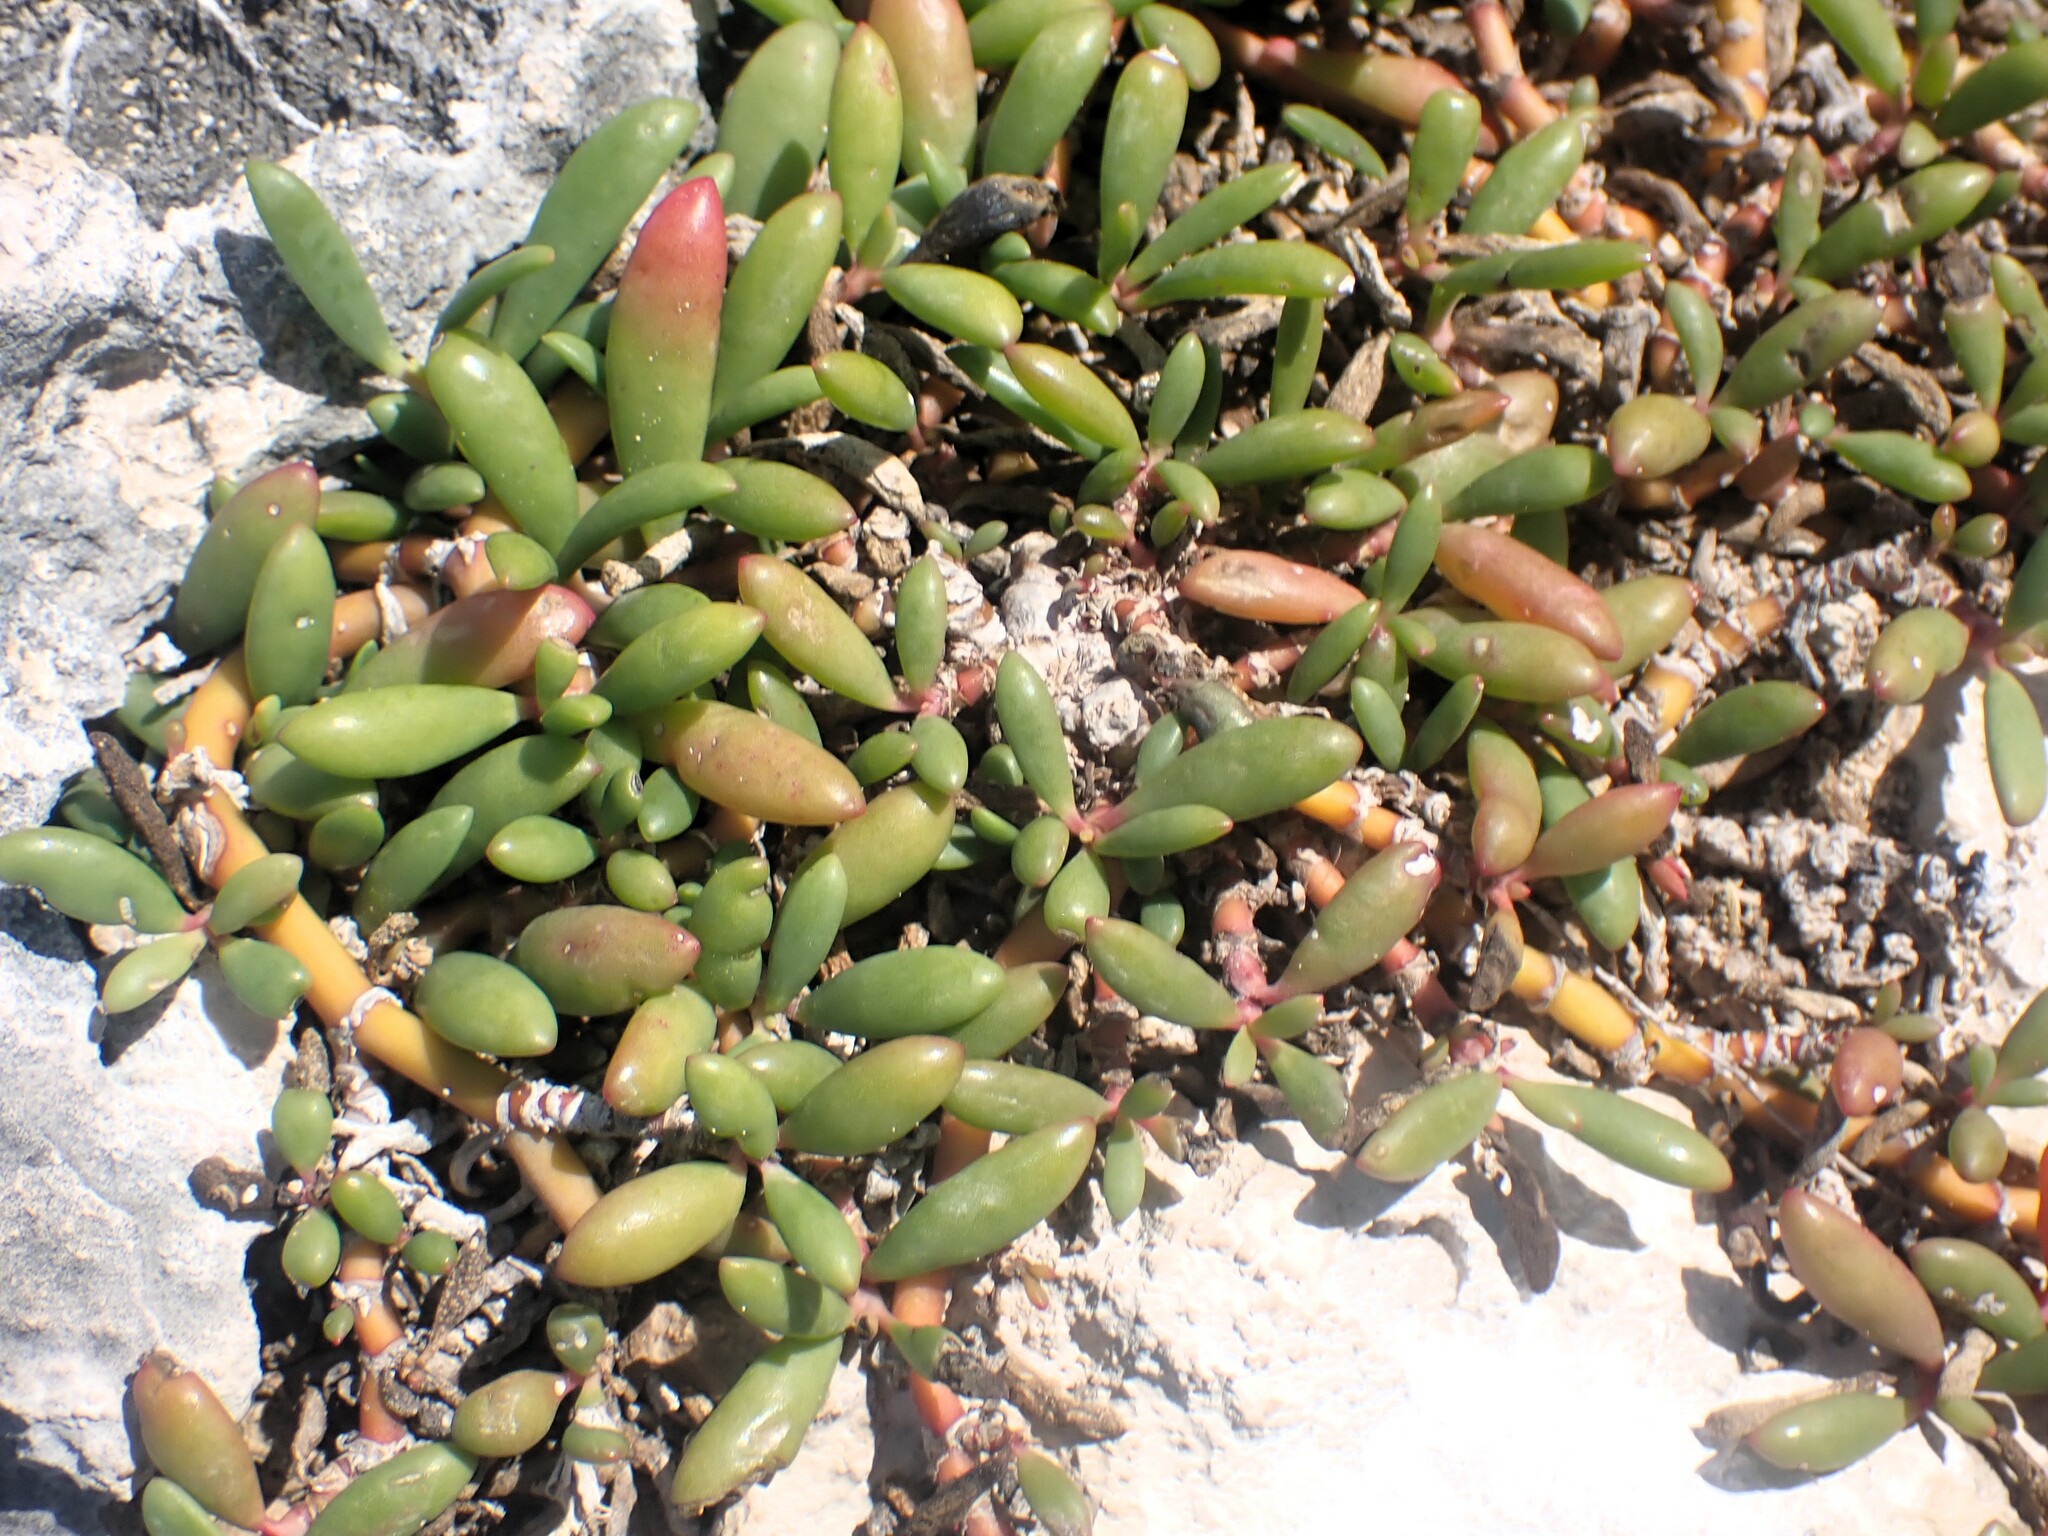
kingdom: Plantae
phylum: Tracheophyta
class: Magnoliopsida
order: Caryophyllales
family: Aizoaceae
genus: Sesuvium
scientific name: Sesuvium portulacastrum
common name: Sea-purslane
